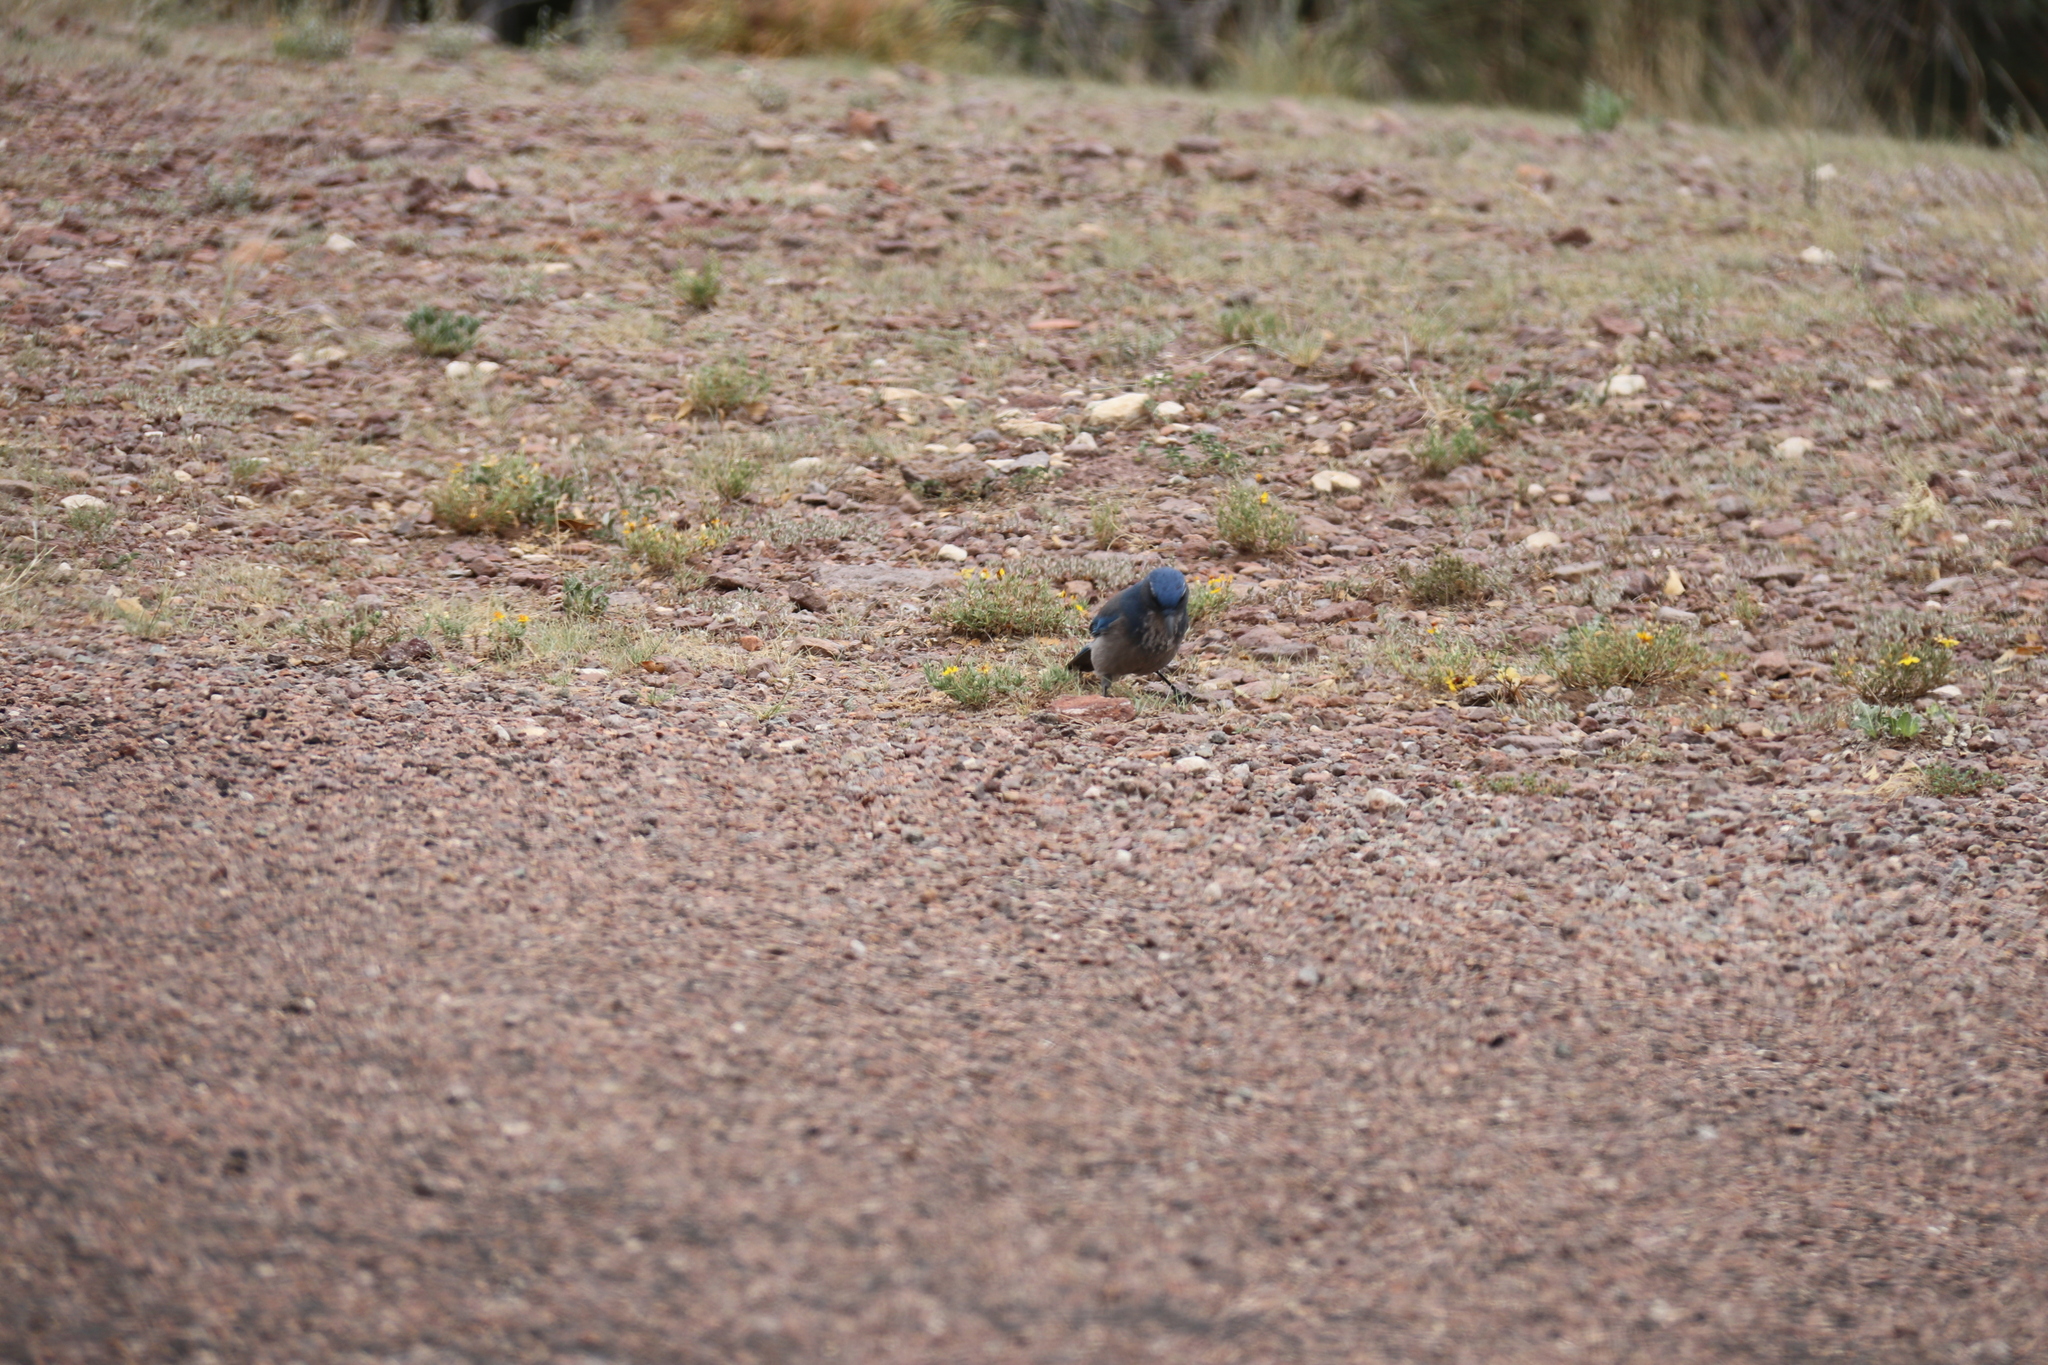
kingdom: Animalia
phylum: Chordata
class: Aves
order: Passeriformes
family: Corvidae
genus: Aphelocoma
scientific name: Aphelocoma woodhouseii
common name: Woodhouse's scrub-jay
